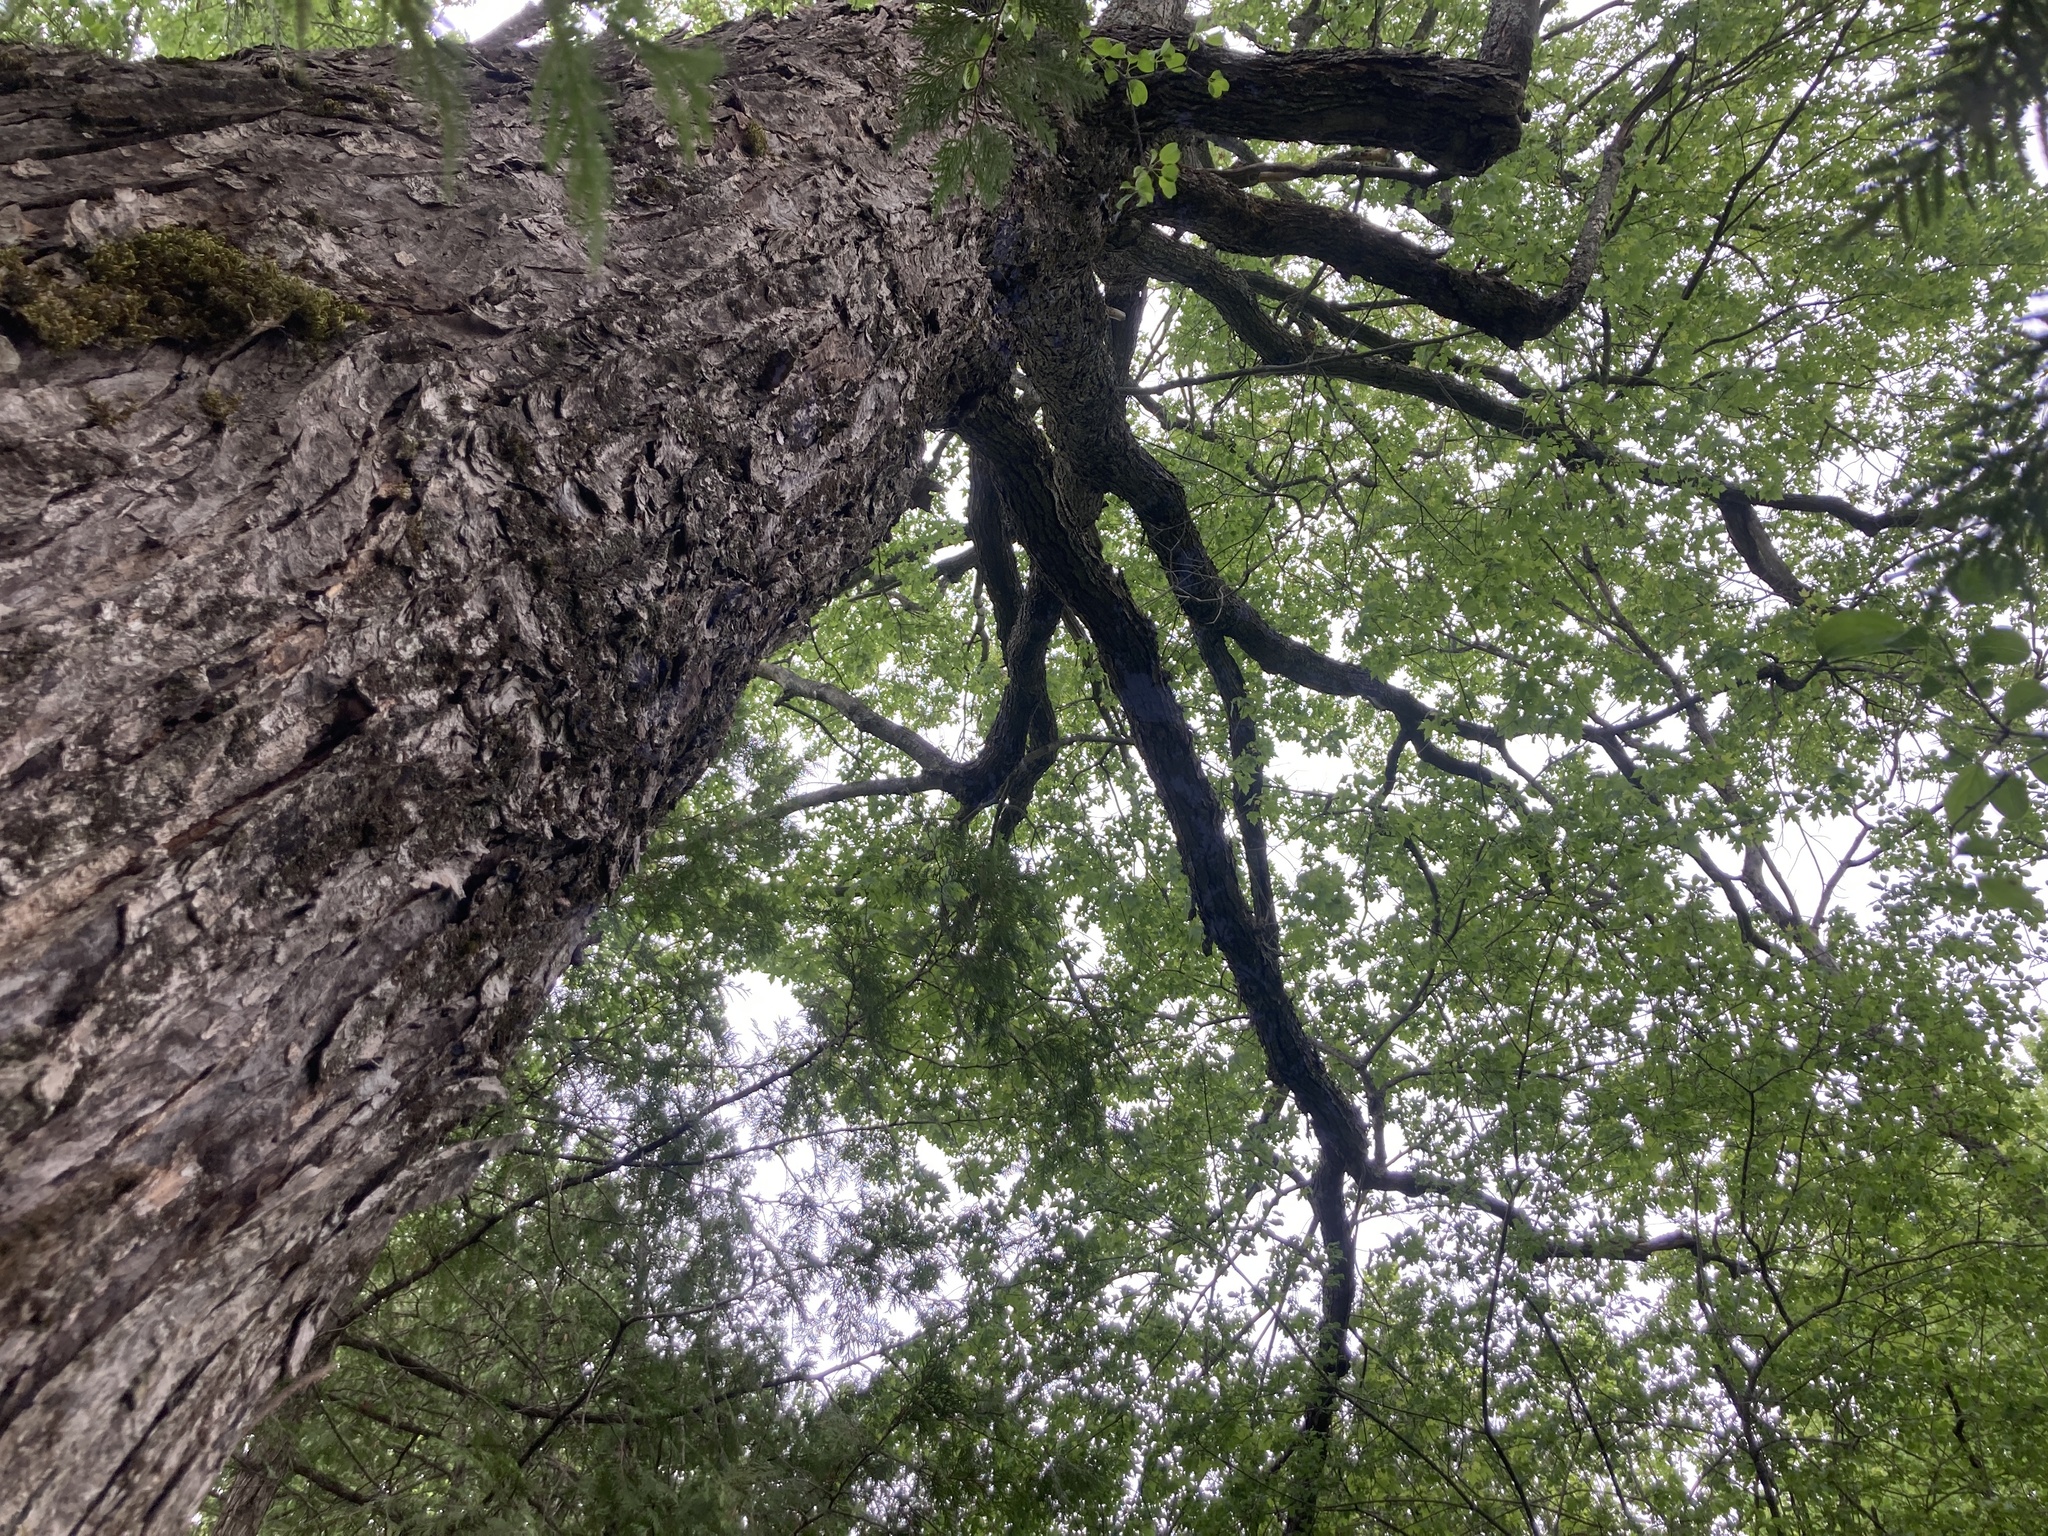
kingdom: Plantae
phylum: Tracheophyta
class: Magnoliopsida
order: Sapindales
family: Sapindaceae
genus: Acer
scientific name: Acer saccharinum
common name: Silver maple
